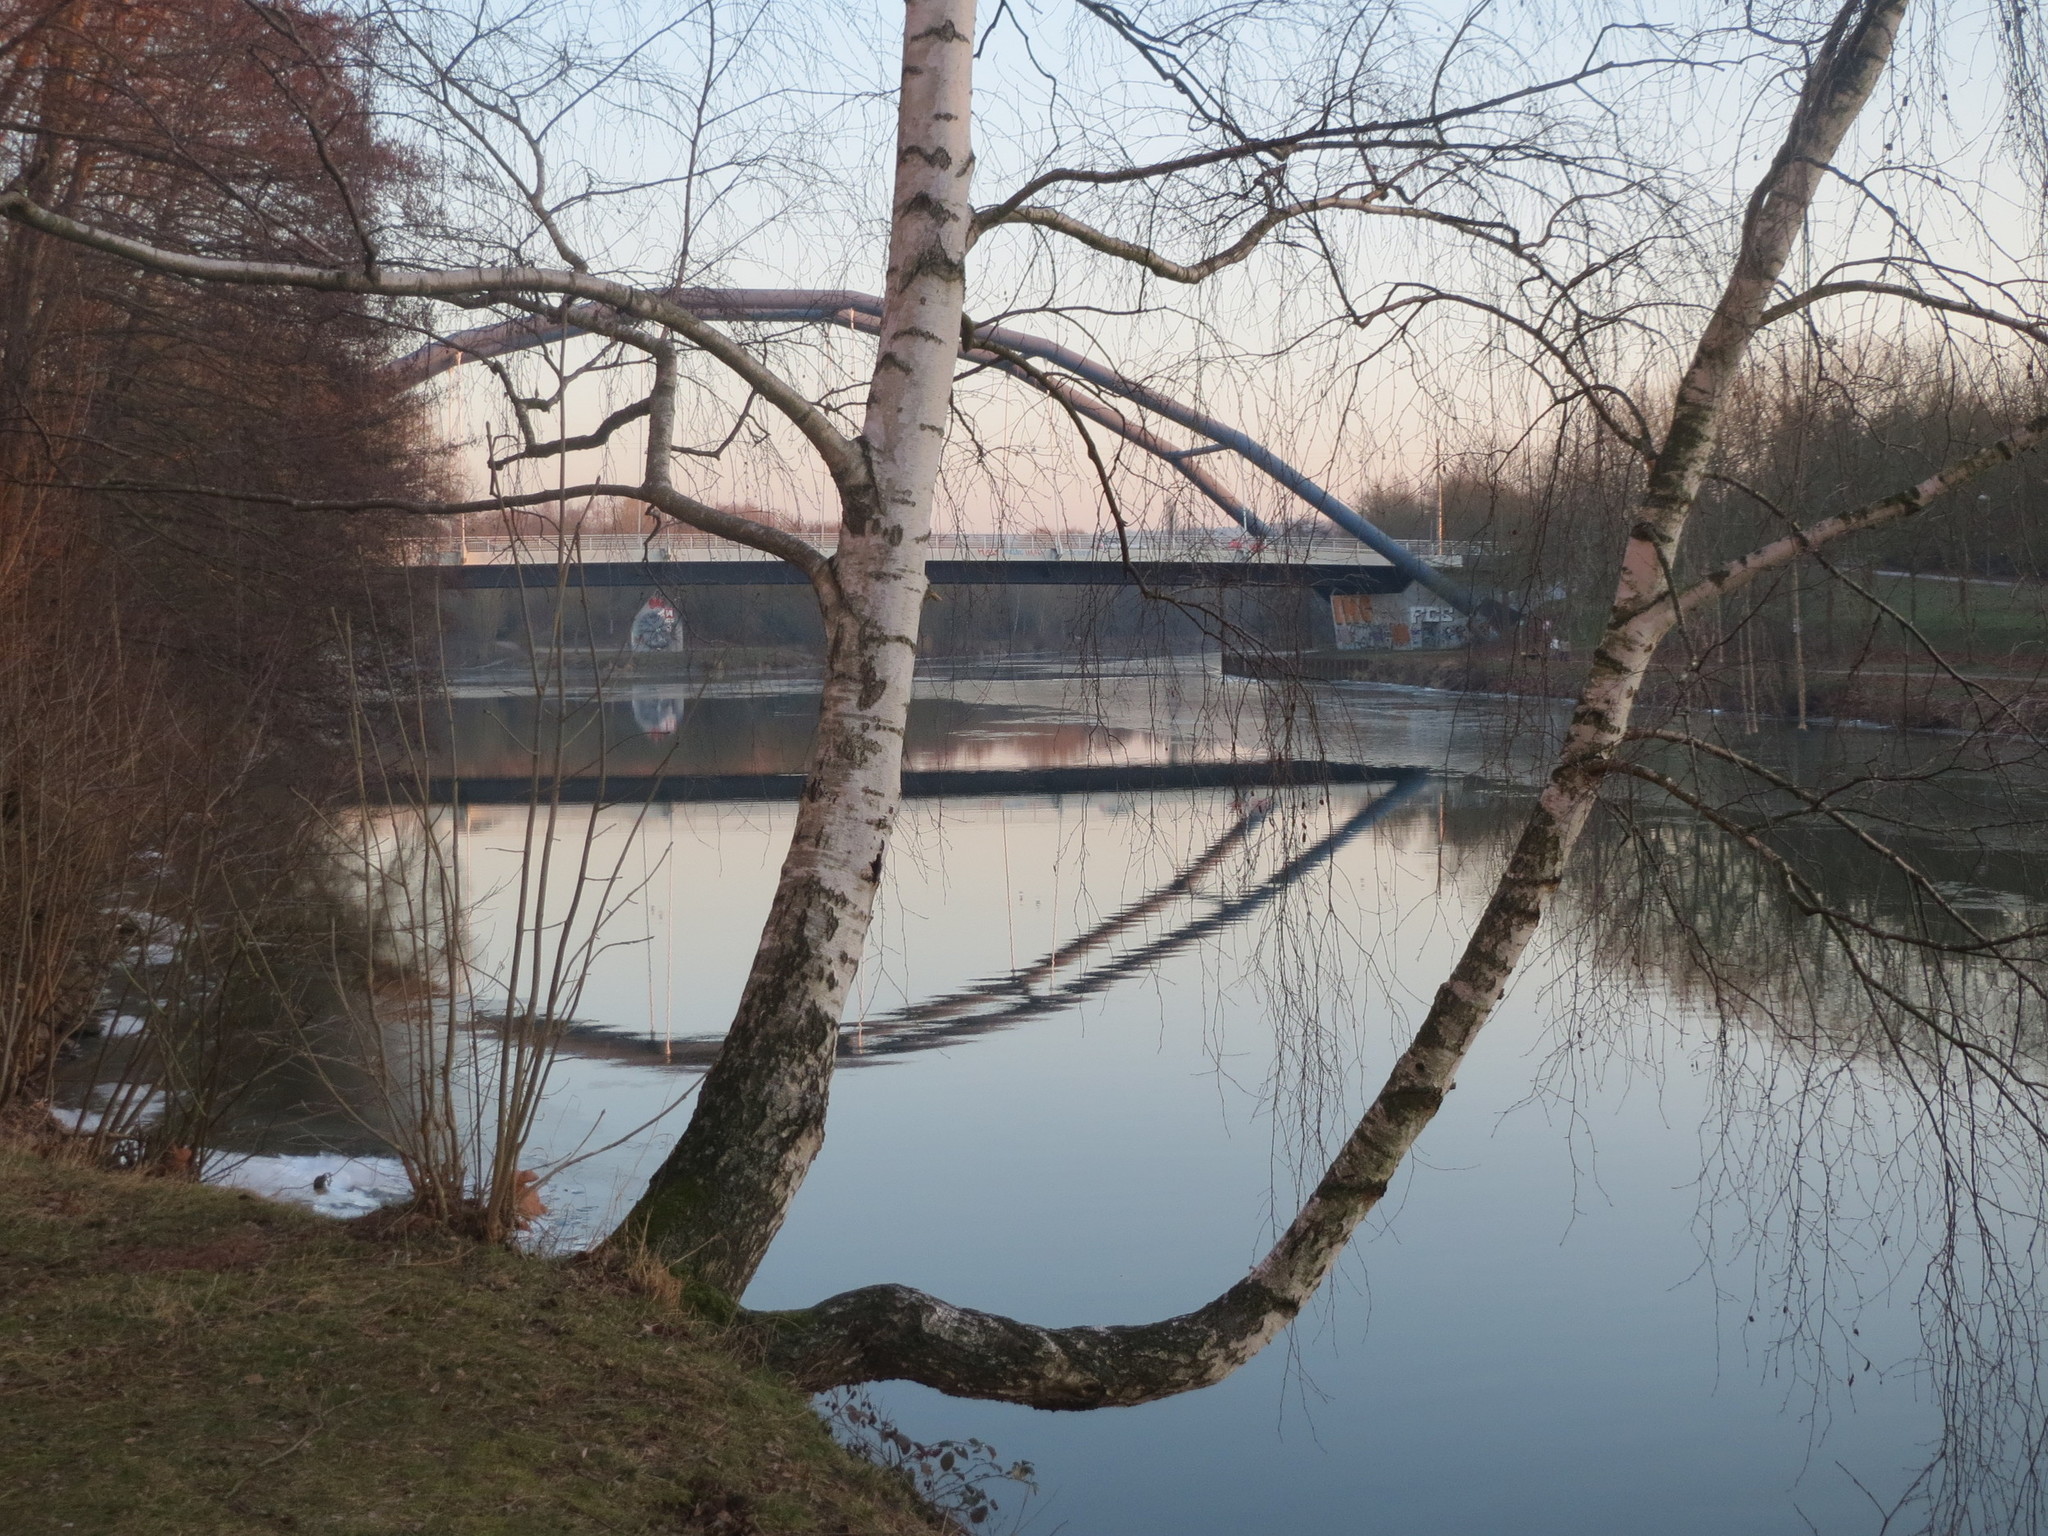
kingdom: Plantae
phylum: Tracheophyta
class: Magnoliopsida
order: Fagales
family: Betulaceae
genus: Betula
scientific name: Betula pendula
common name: Silver birch
